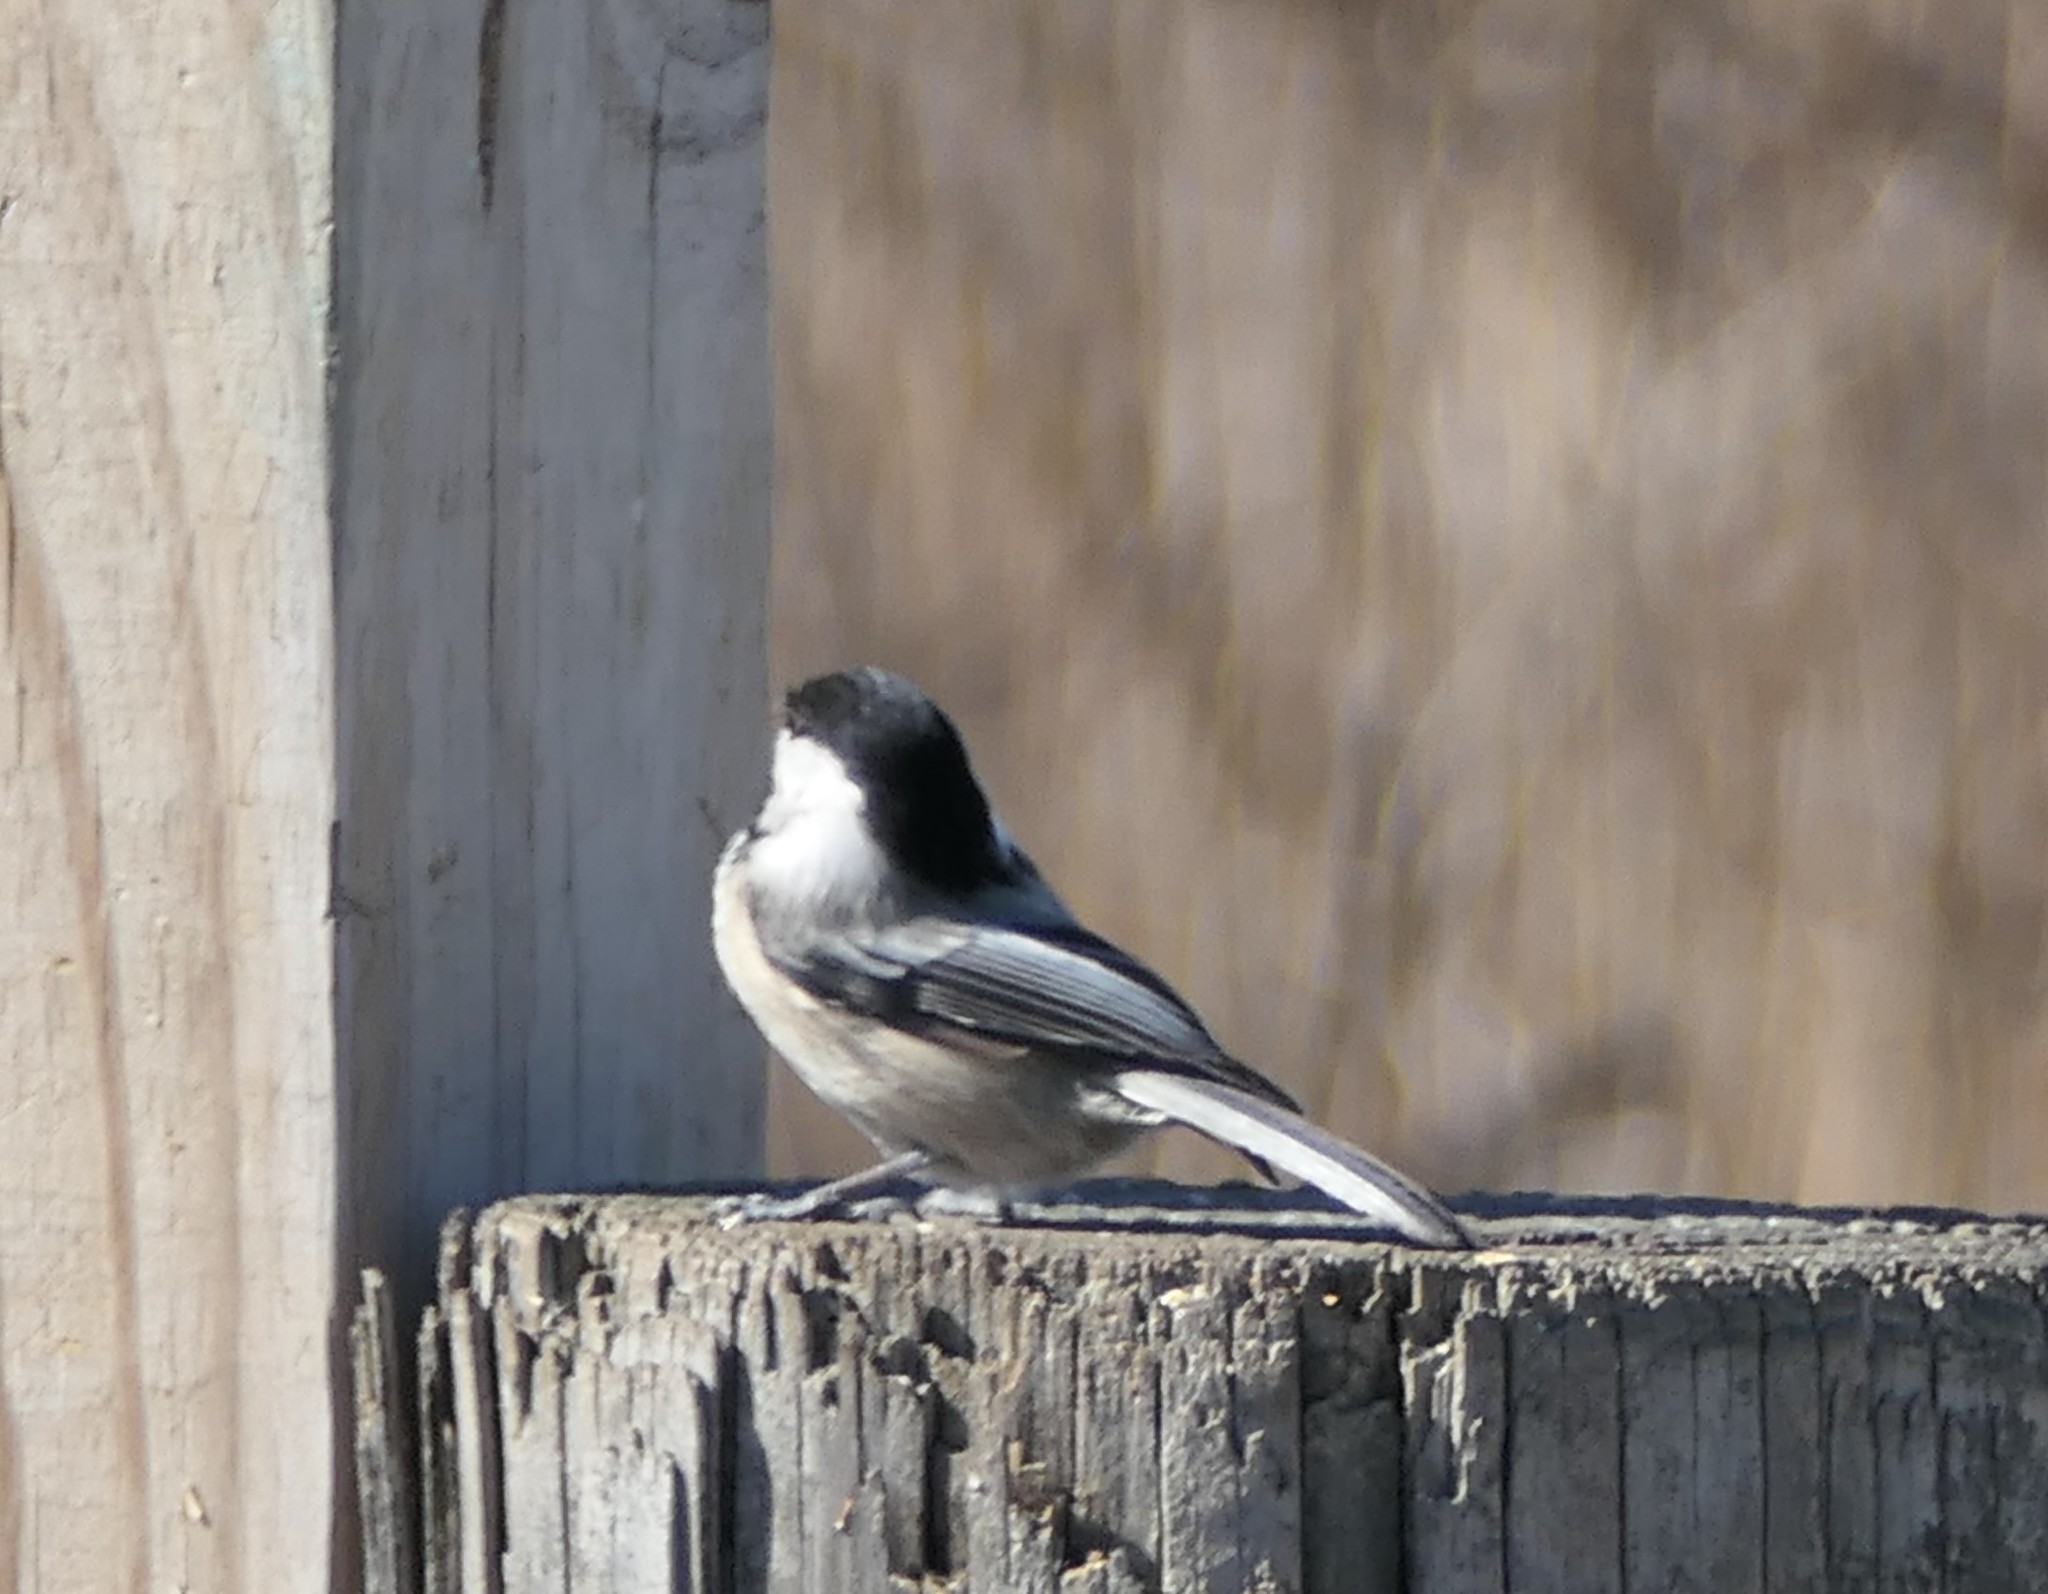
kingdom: Animalia
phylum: Chordata
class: Aves
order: Passeriformes
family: Paridae
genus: Poecile
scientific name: Poecile atricapillus
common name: Black-capped chickadee
